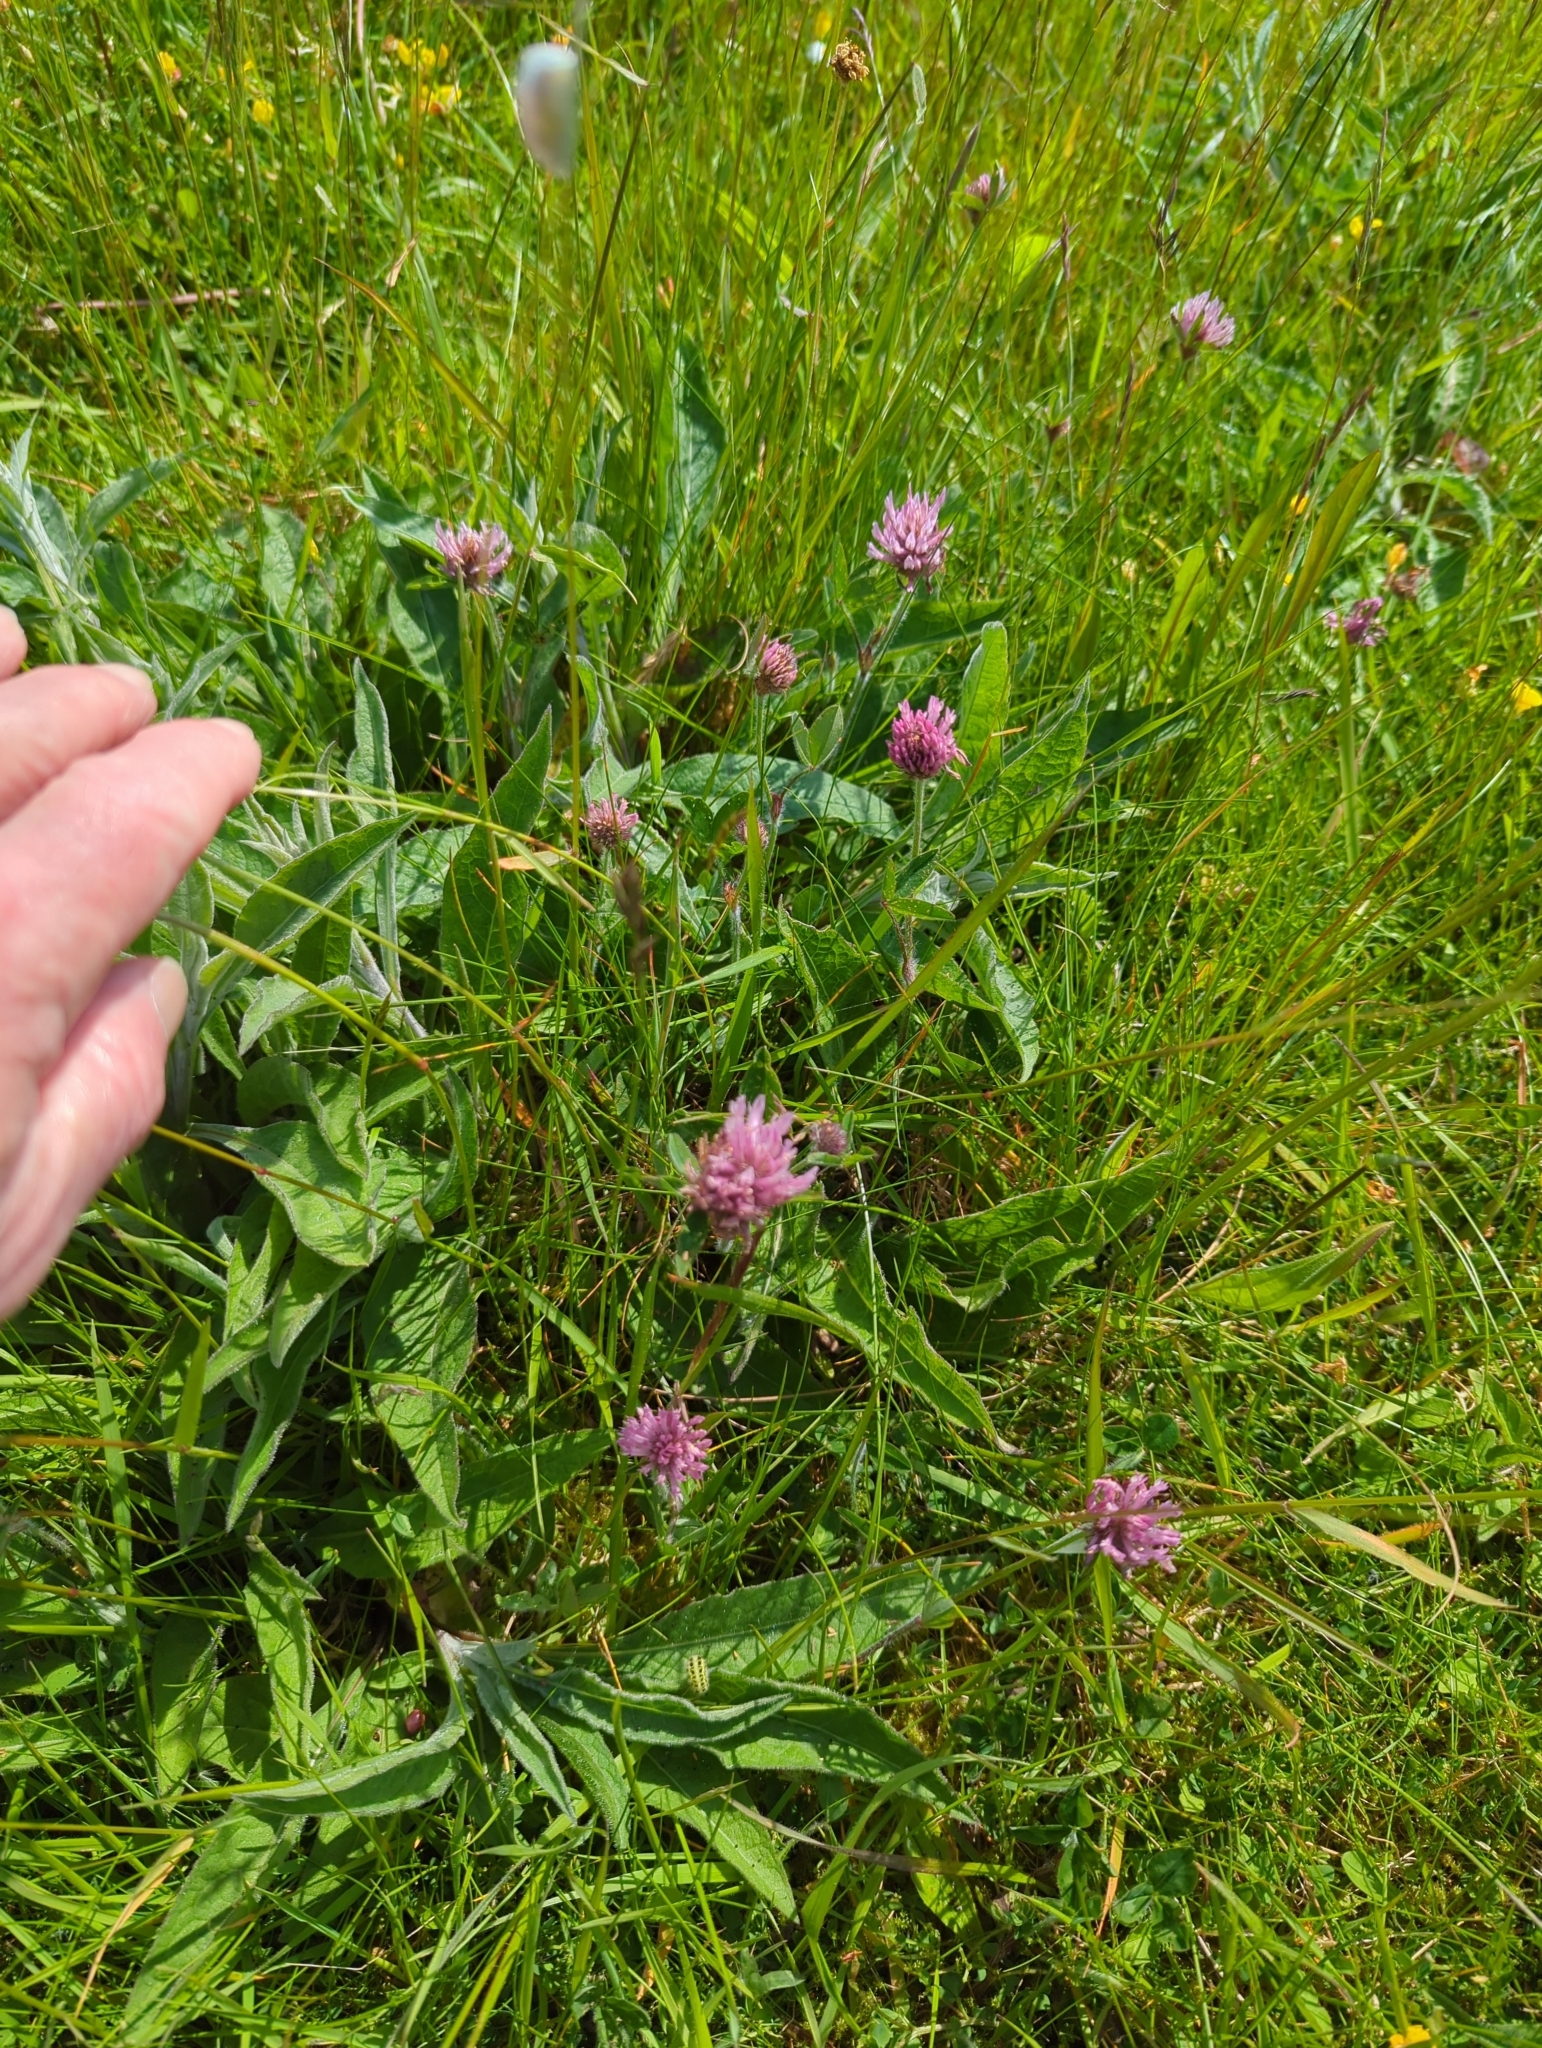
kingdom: Plantae
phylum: Tracheophyta
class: Magnoliopsida
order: Fabales
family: Fabaceae
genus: Trifolium
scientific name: Trifolium pratense
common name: Red clover
